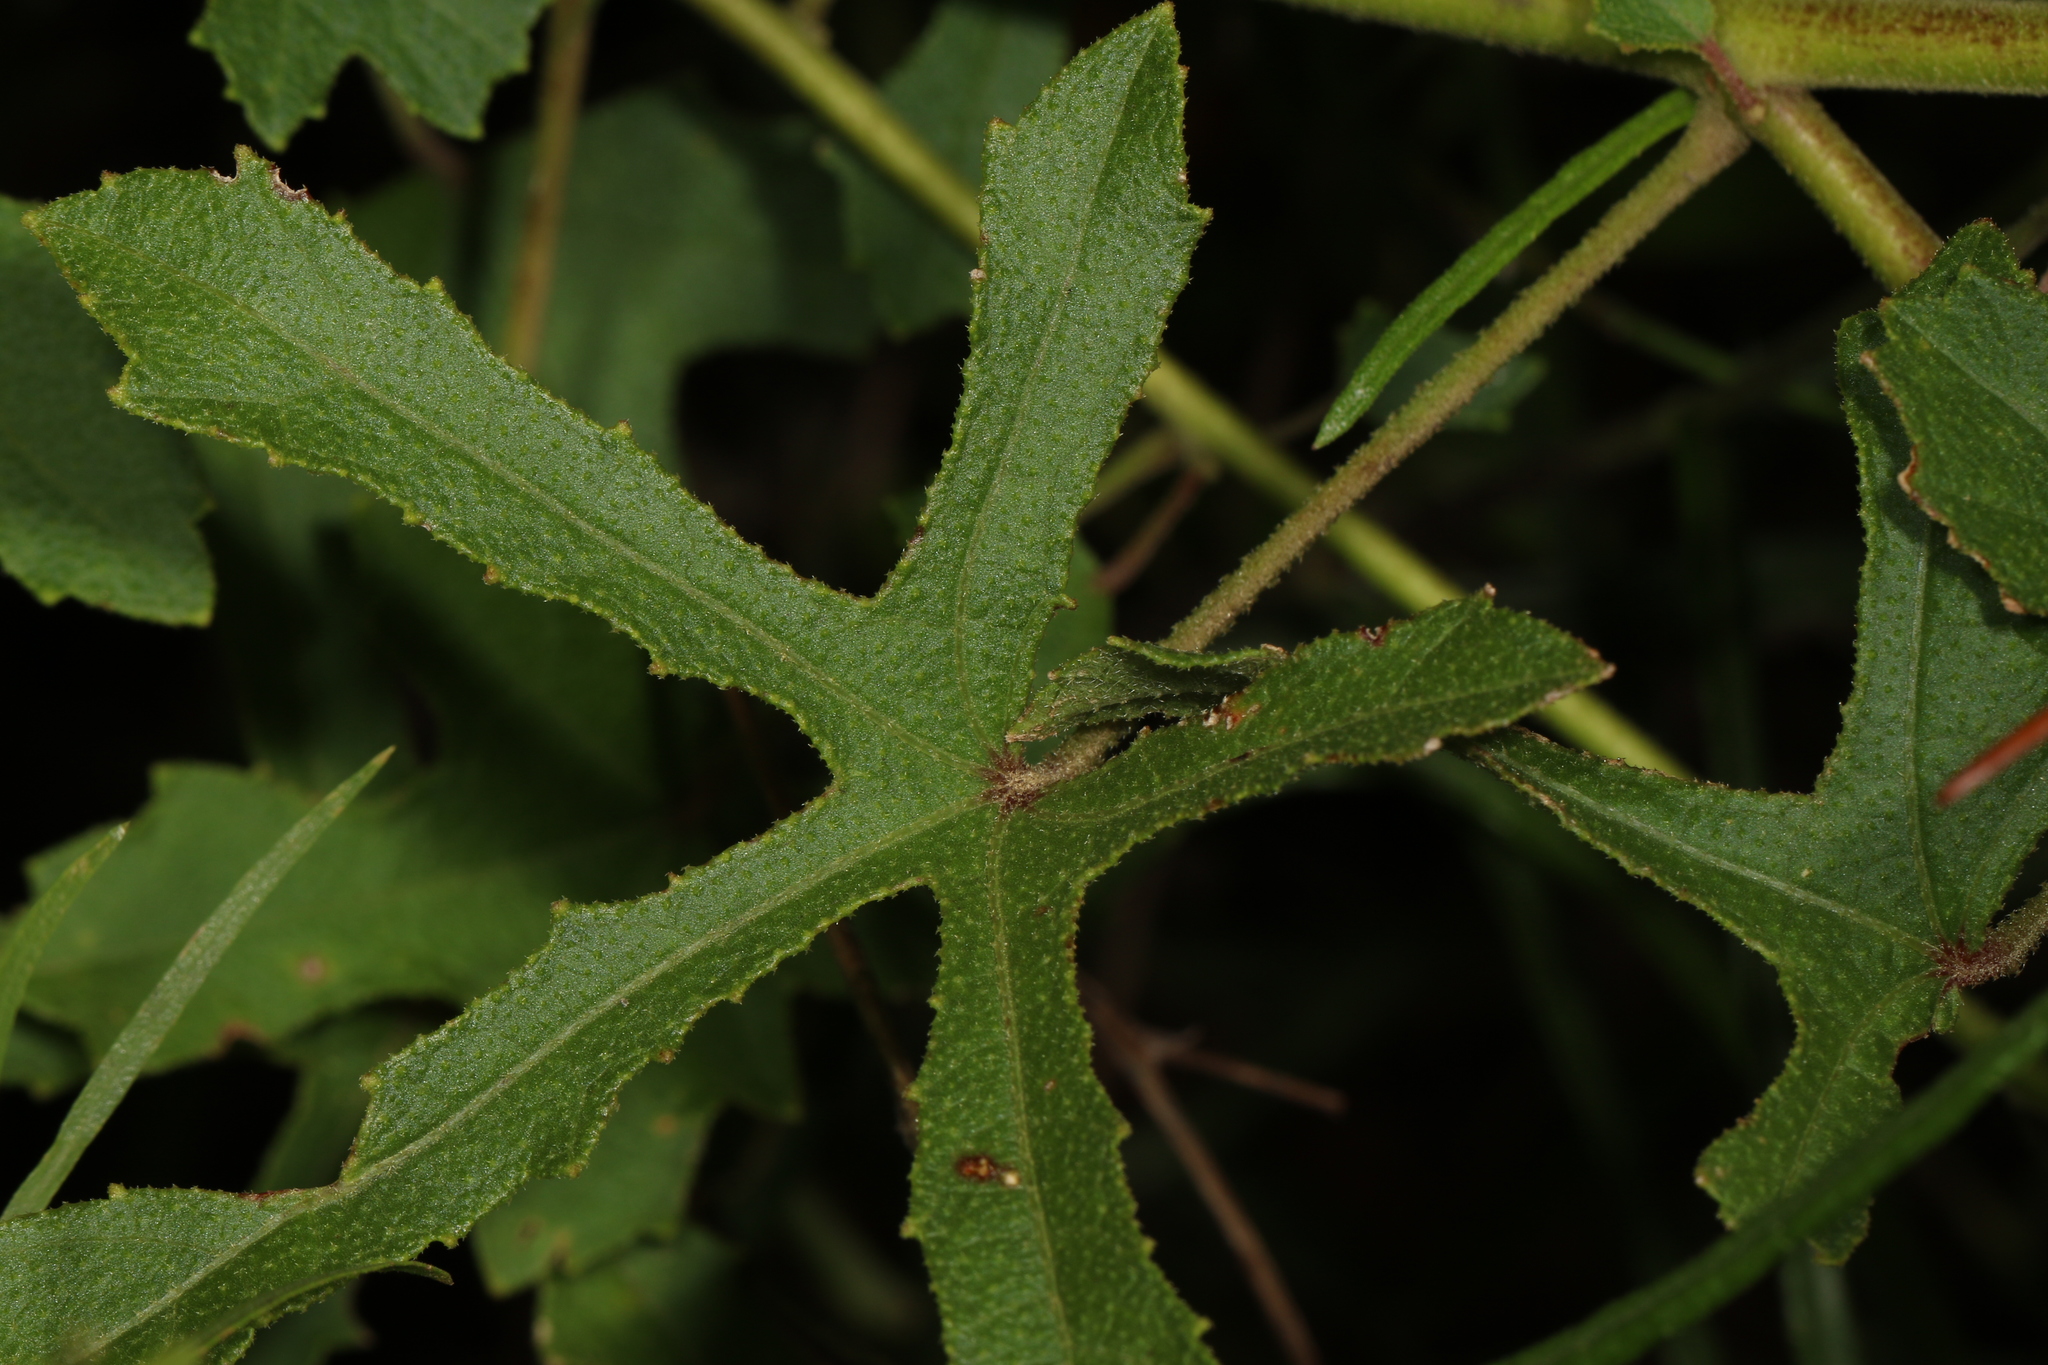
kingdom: Plantae
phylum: Tracheophyta
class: Magnoliopsida
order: Malvales
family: Malvaceae
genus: Hibiscus
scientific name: Hibiscus aculeatus
